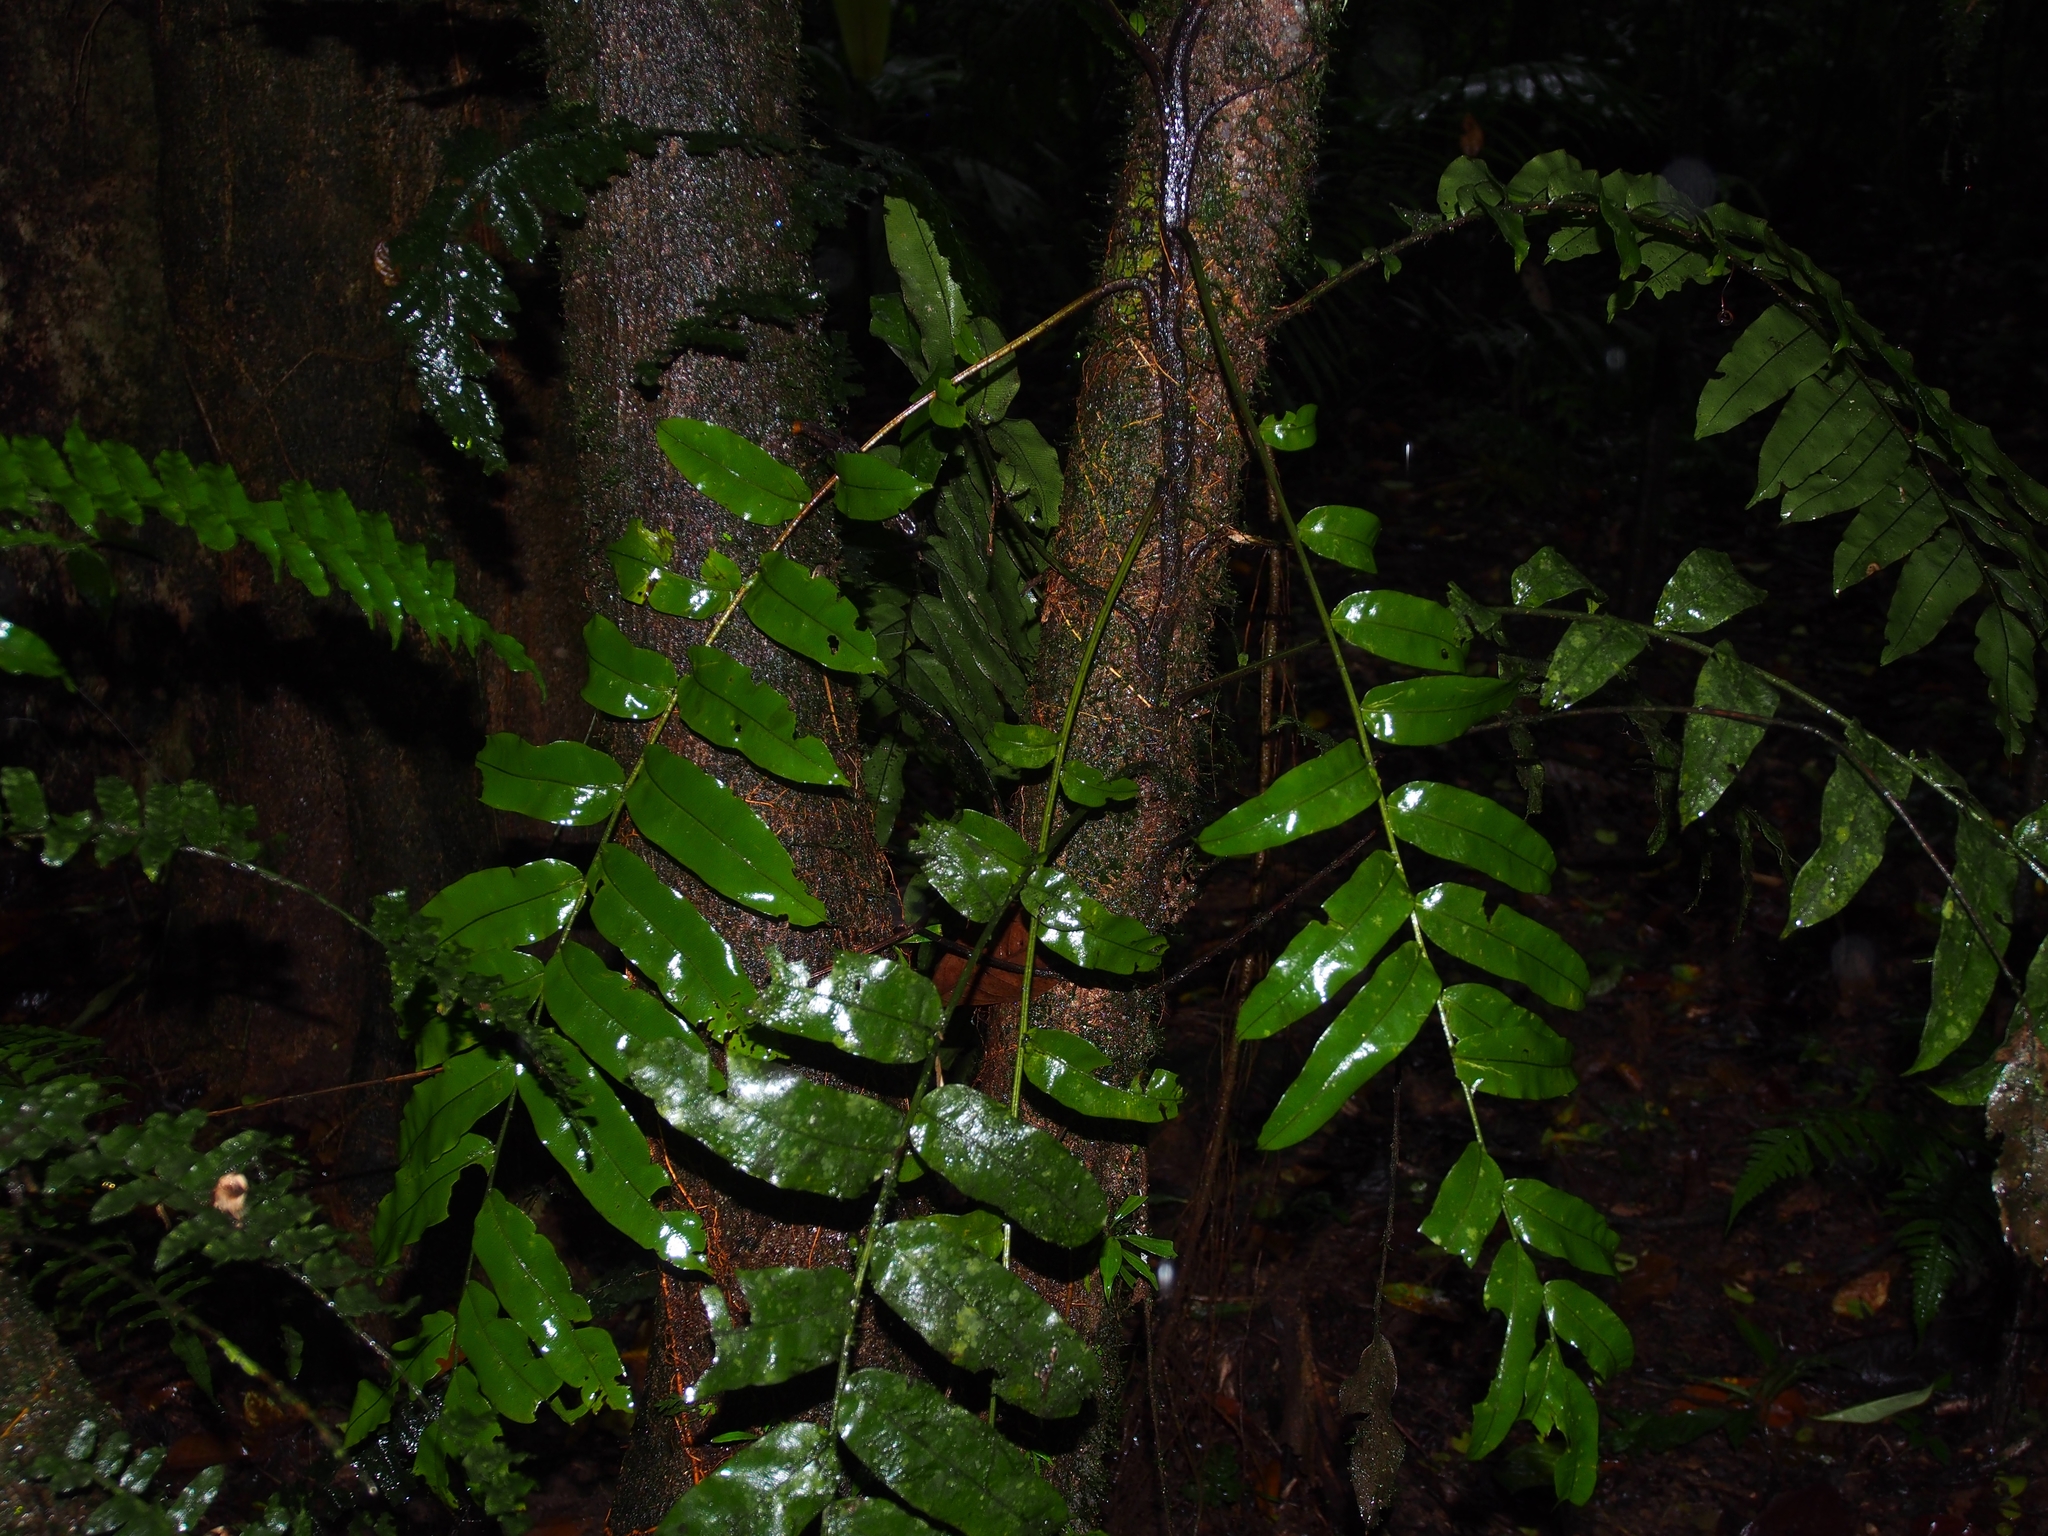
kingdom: Plantae
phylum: Tracheophyta
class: Polypodiopsida
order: Polypodiales
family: Lomariopsidaceae
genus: Lomariopsis
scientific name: Lomariopsis japurensis
